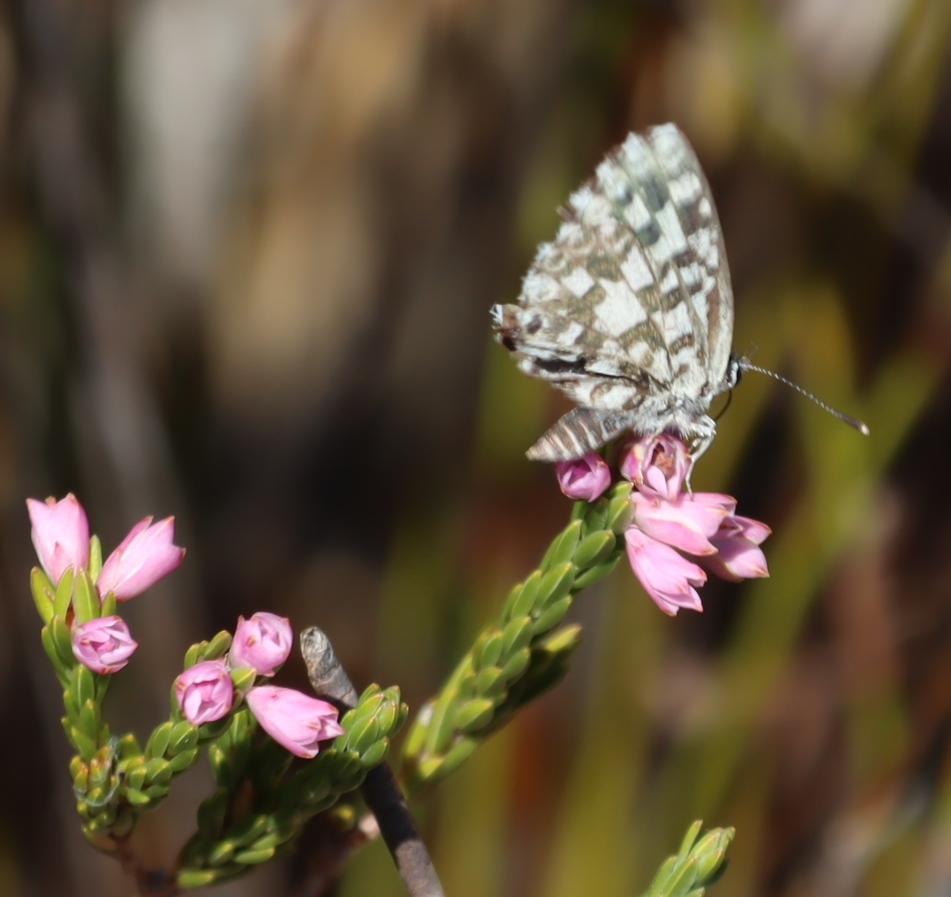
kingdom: Animalia
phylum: Arthropoda
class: Insecta
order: Lepidoptera
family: Lycaenidae
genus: Tarucus
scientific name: Tarucus thespis
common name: Vivid dotted blue
